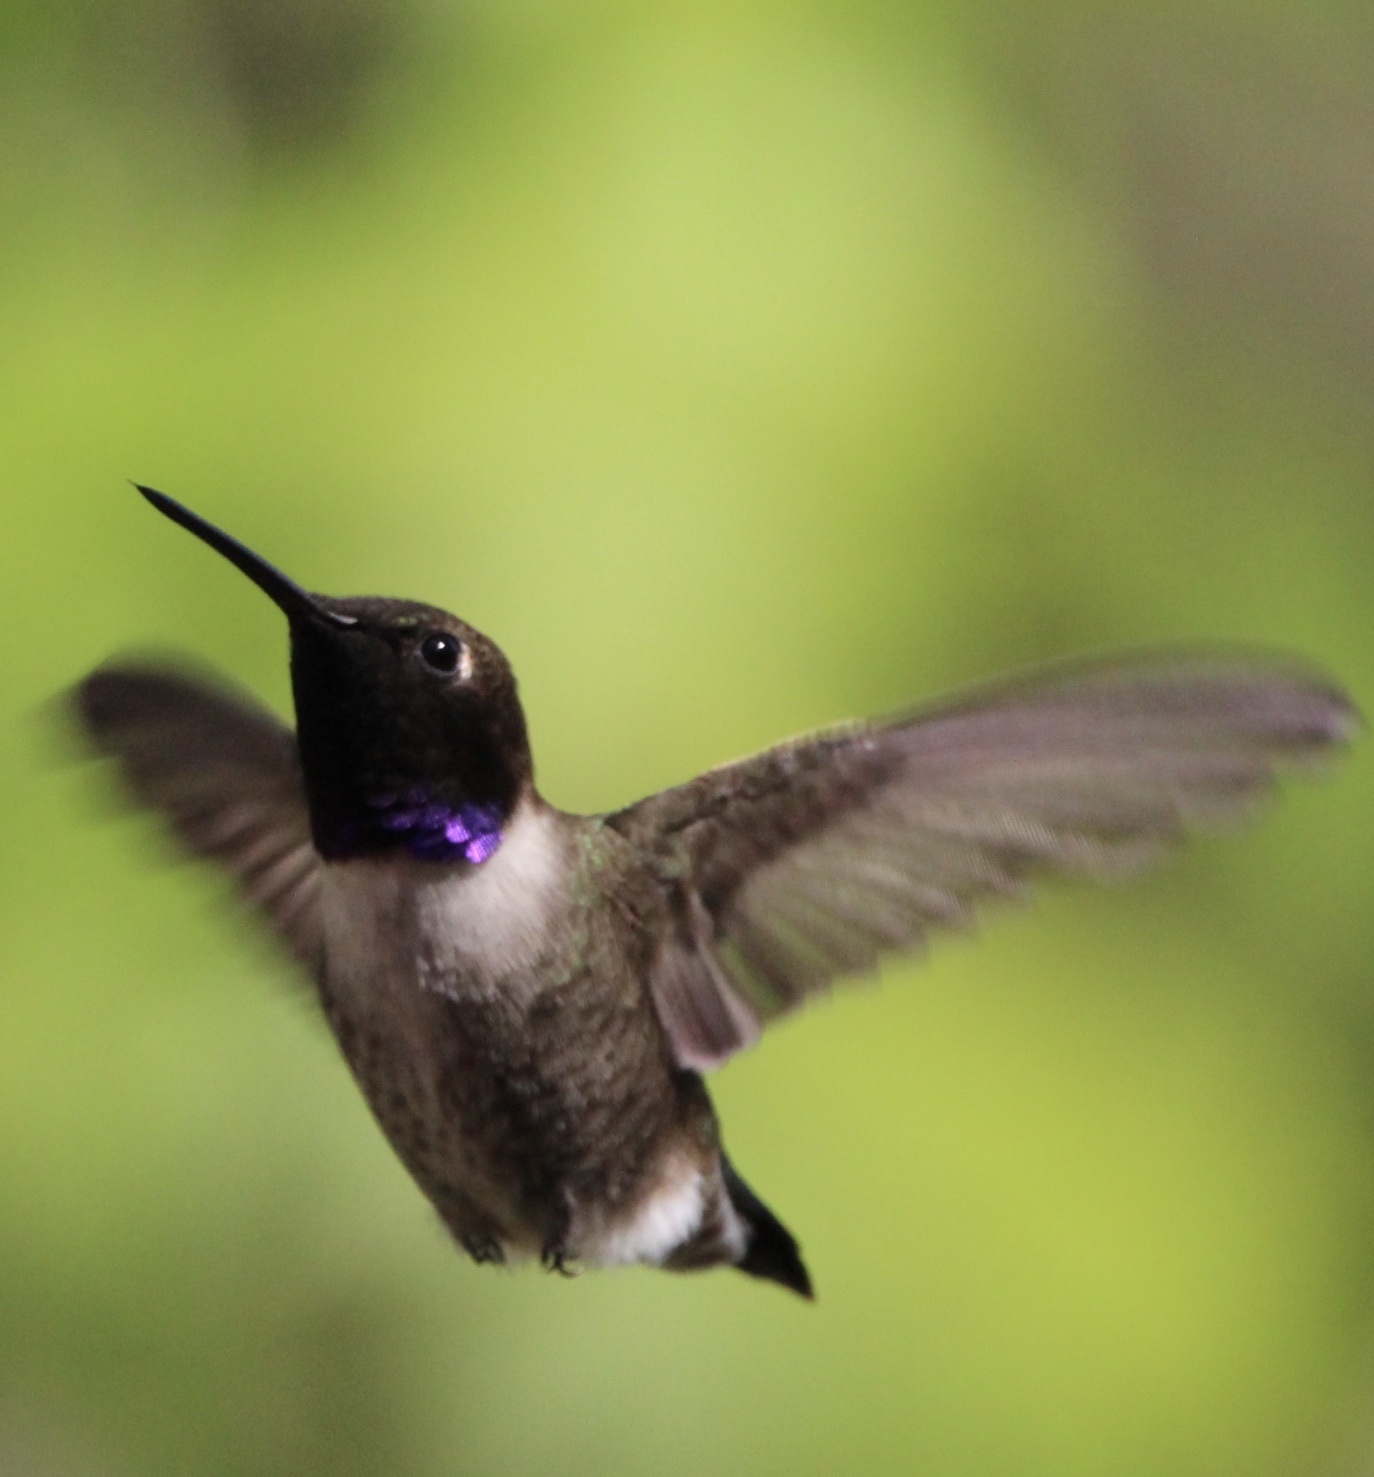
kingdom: Animalia
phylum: Chordata
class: Aves
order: Apodiformes
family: Trochilidae
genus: Archilochus
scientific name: Archilochus alexandri
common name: Black-chinned hummingbird
